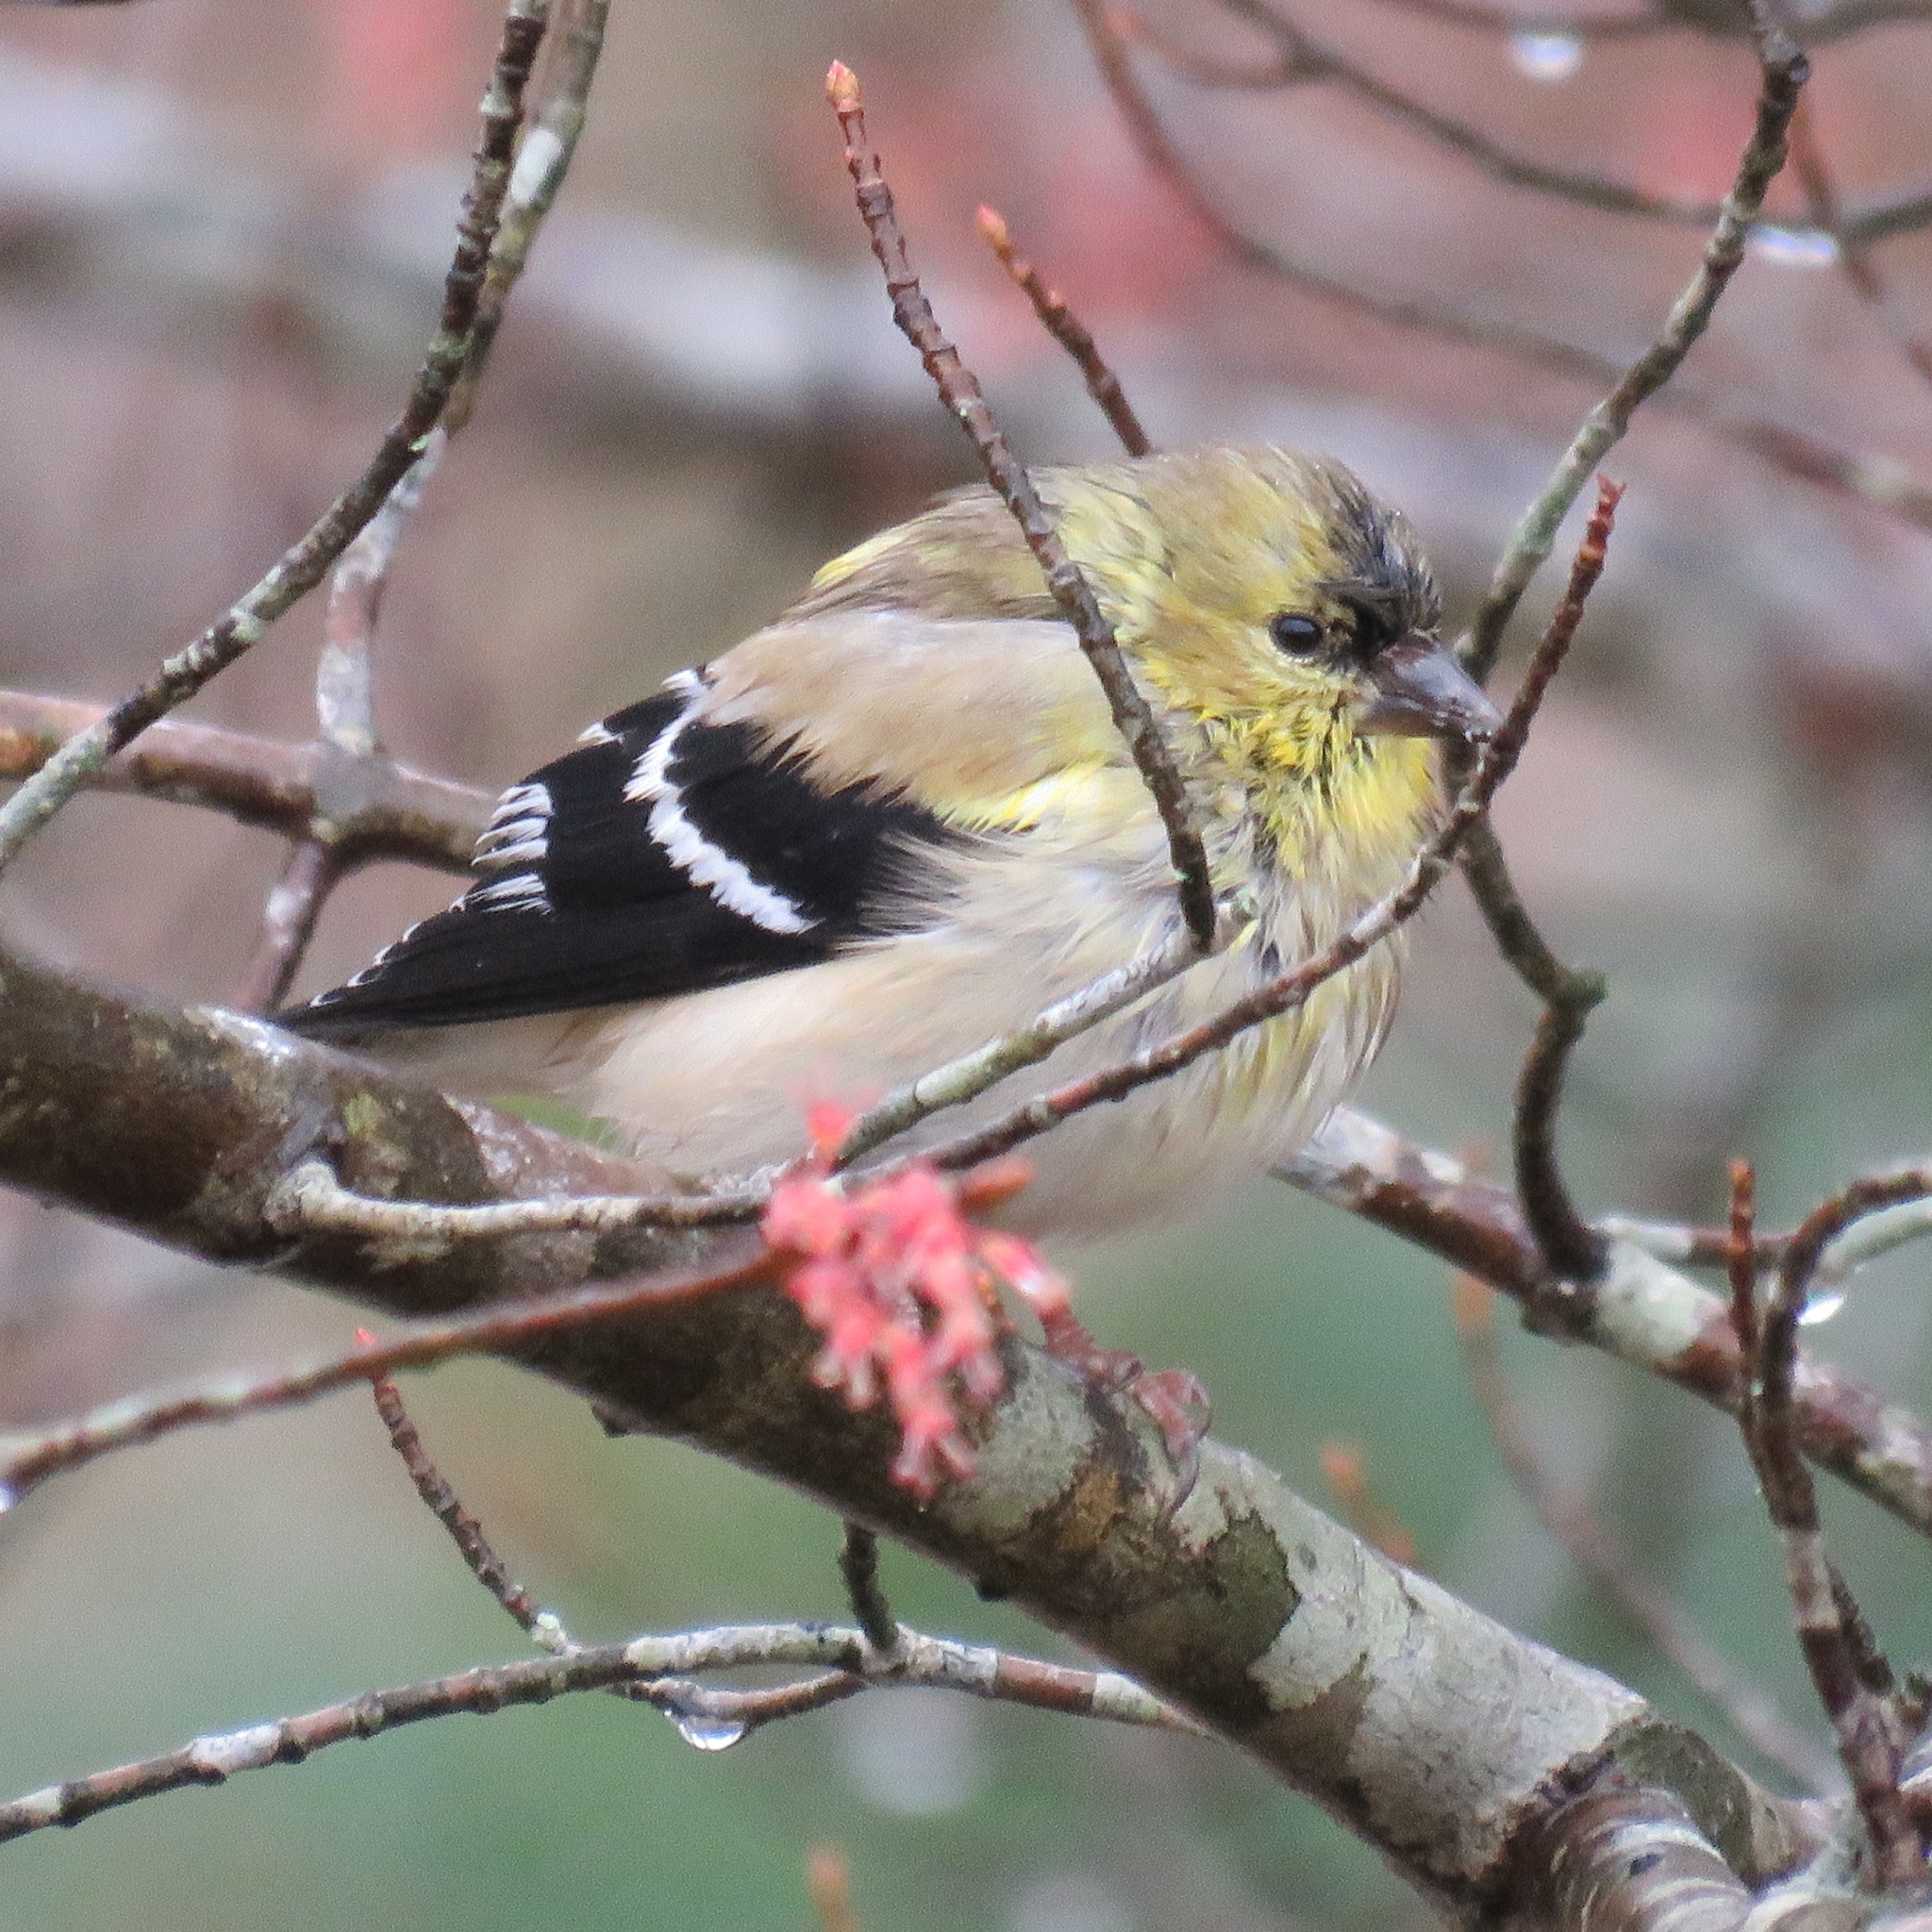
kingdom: Animalia
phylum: Chordata
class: Aves
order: Passeriformes
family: Fringillidae
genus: Spinus
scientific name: Spinus tristis
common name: American goldfinch
